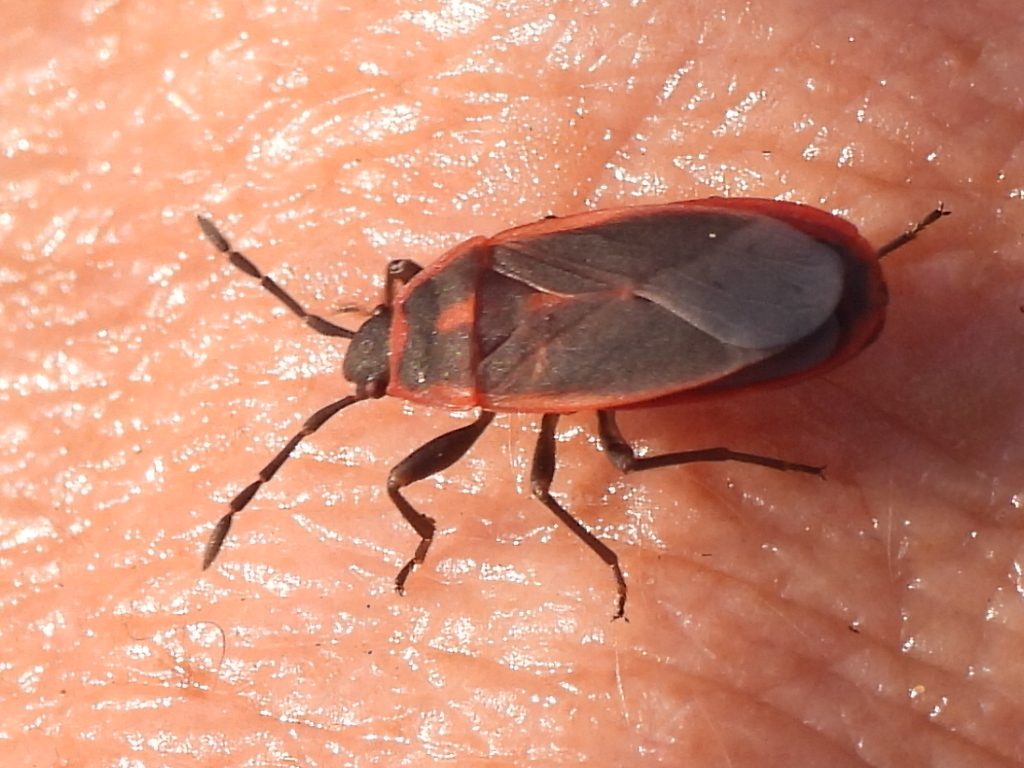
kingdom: Animalia
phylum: Arthropoda
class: Insecta
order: Hemiptera
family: Pyrrhocoridae
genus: Scantius
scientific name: Scantius forsteri
